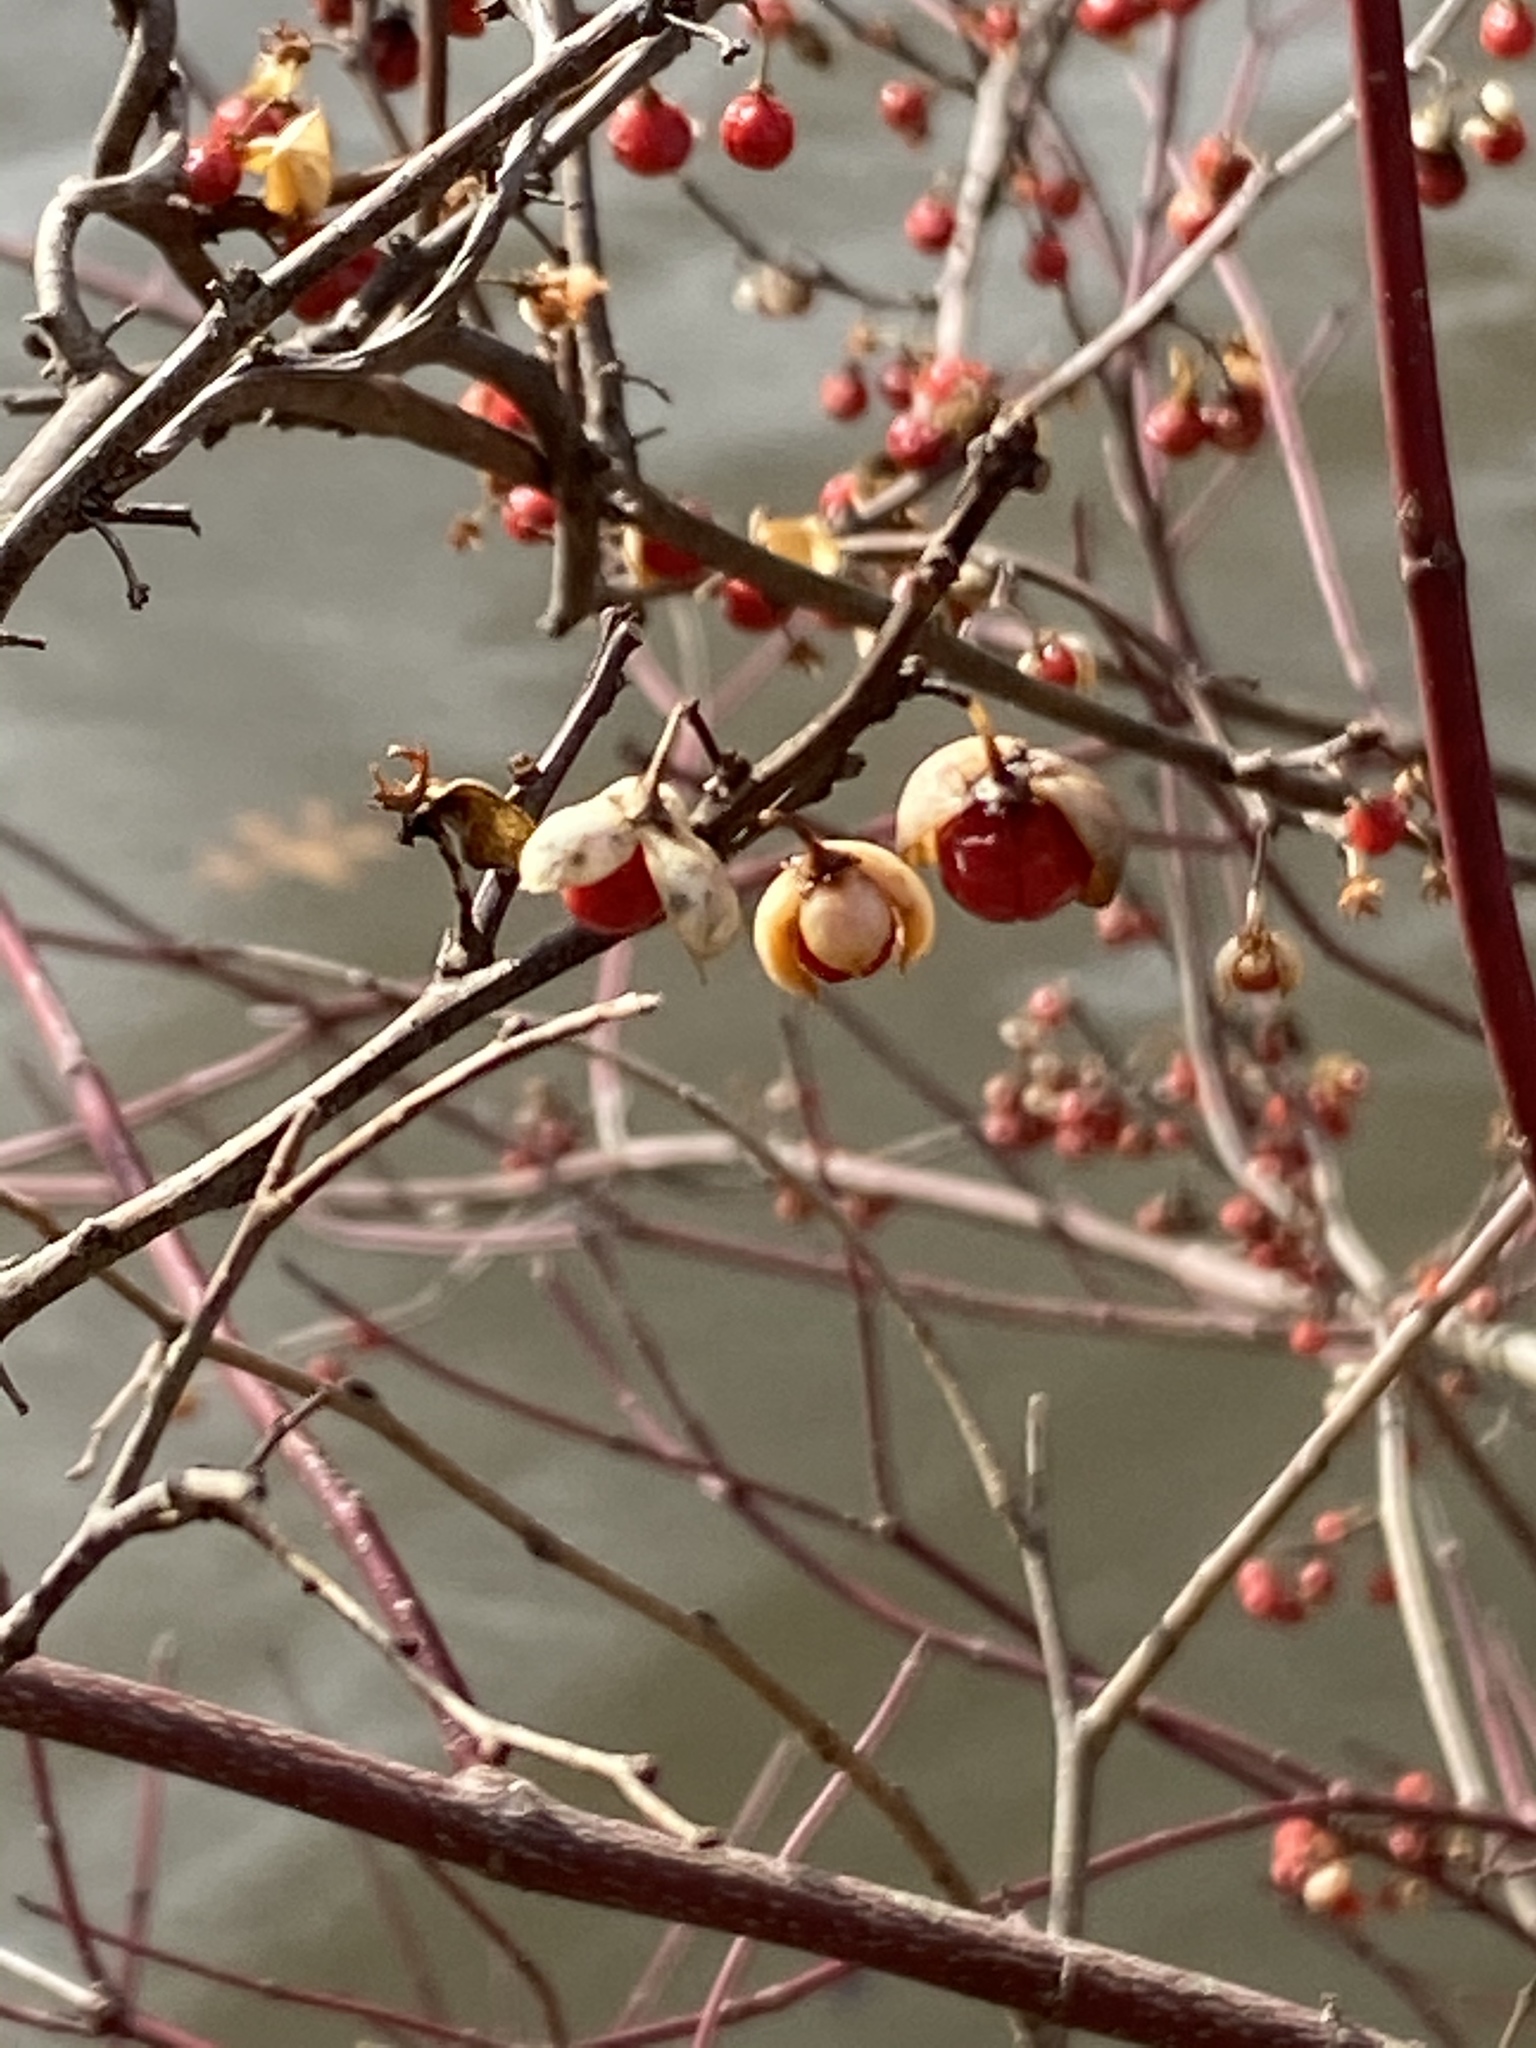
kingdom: Plantae
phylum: Tracheophyta
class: Magnoliopsida
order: Celastrales
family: Celastraceae
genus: Celastrus
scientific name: Celastrus orbiculatus
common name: Oriental bittersweet
